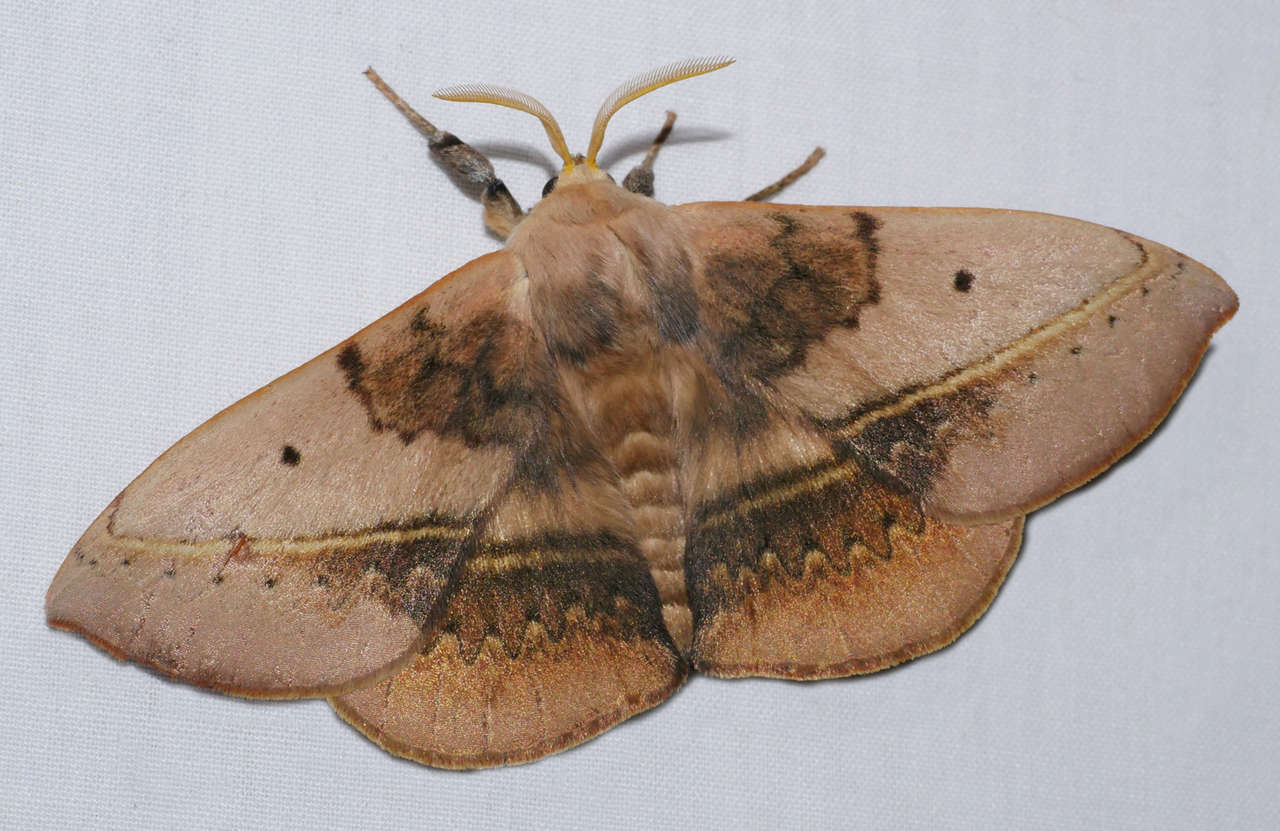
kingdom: Animalia
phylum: Arthropoda
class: Insecta
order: Lepidoptera
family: Anthelidae
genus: Anthela
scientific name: Anthela varia
